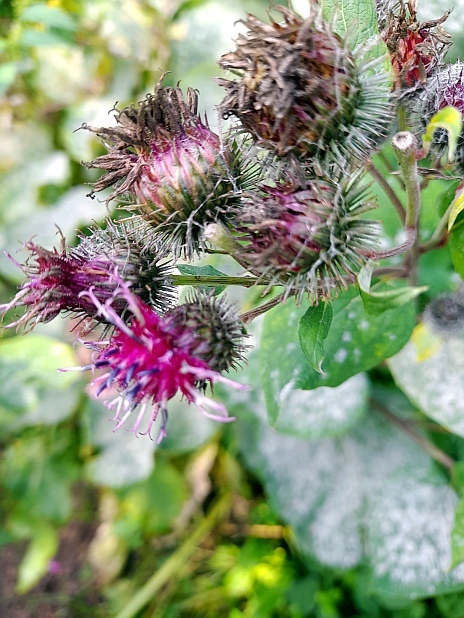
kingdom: Plantae
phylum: Tracheophyta
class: Magnoliopsida
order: Asterales
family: Asteraceae
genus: Arctium
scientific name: Arctium tomentosum
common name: Woolly burdock
